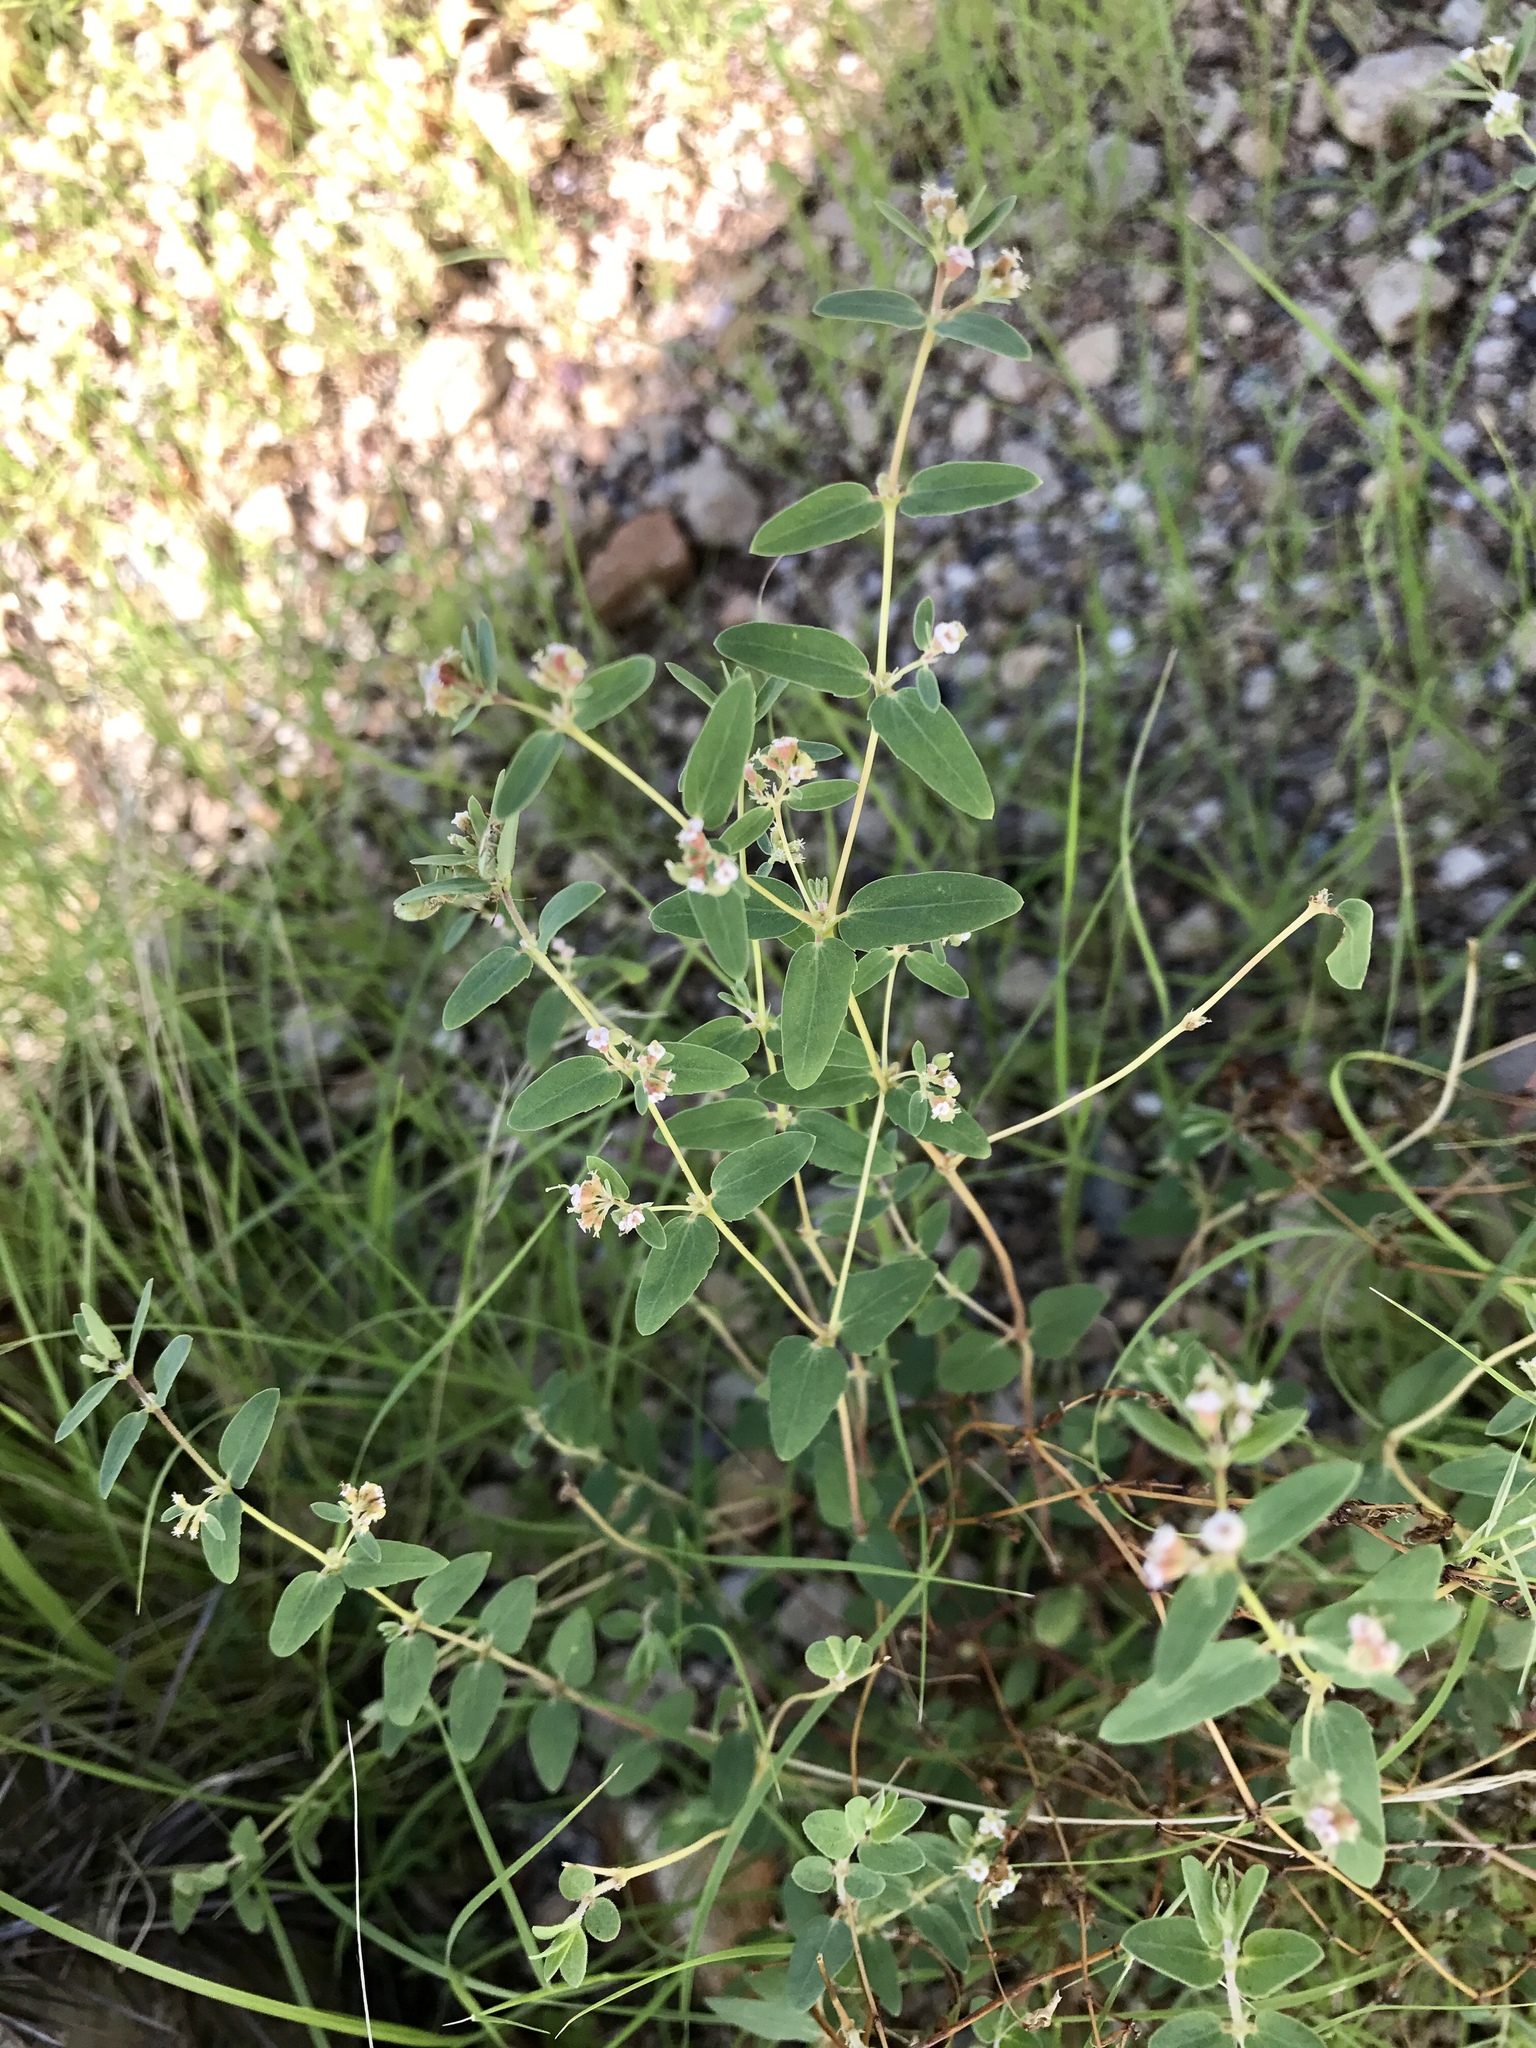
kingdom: Plantae
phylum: Tracheophyta
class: Magnoliopsida
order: Malpighiales
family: Euphorbiaceae
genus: Euphorbia
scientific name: Euphorbia capitellata
